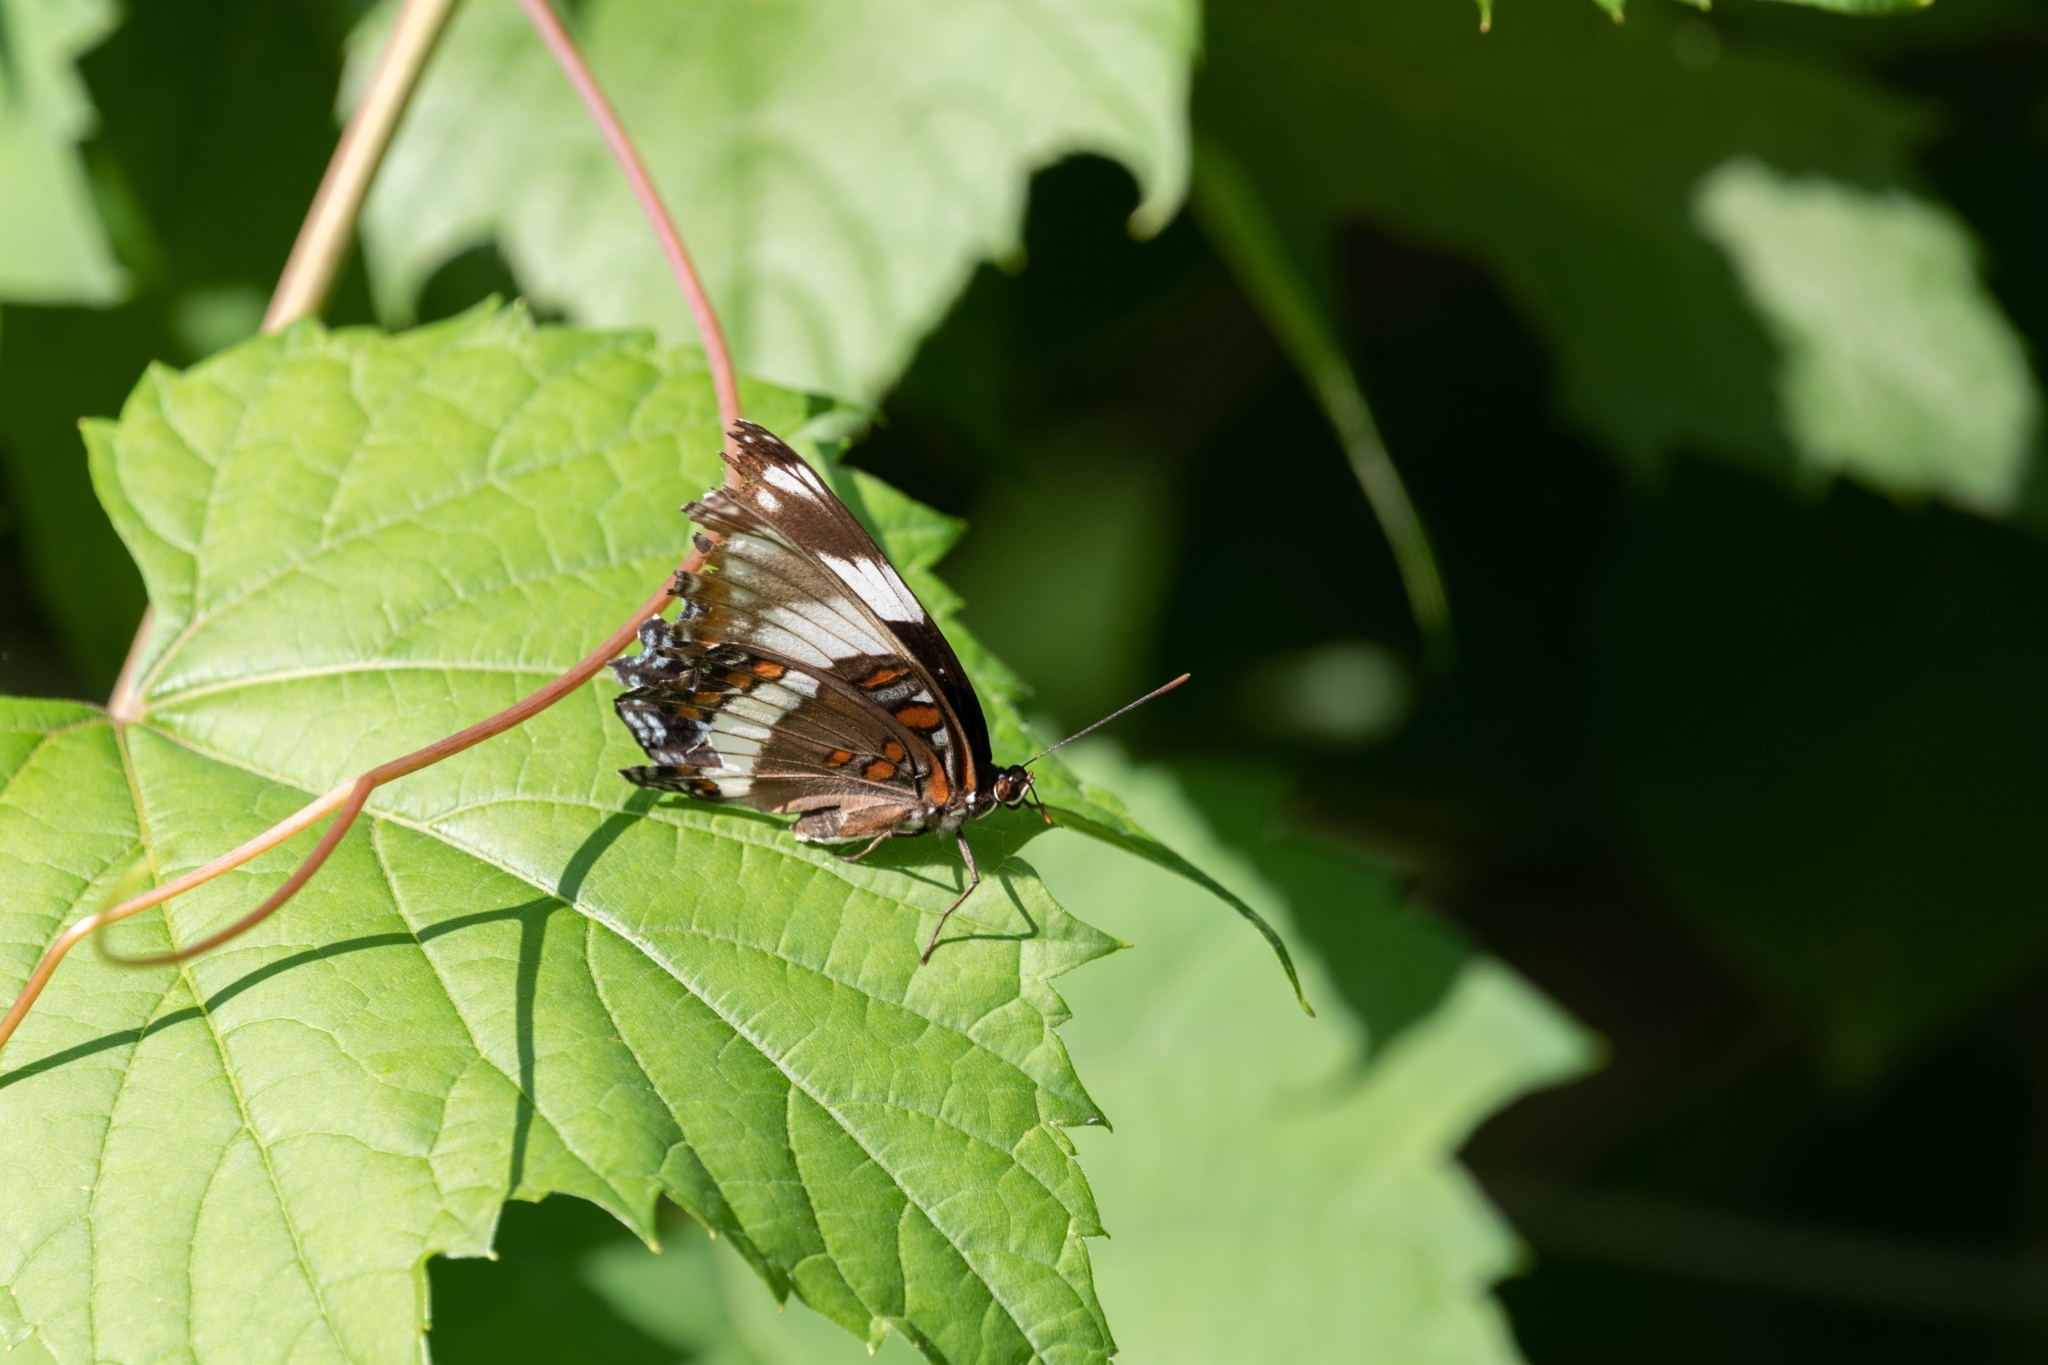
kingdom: Animalia
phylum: Arthropoda
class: Insecta
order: Lepidoptera
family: Nymphalidae
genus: Limenitis
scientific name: Limenitis arthemis
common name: Red-spotted admiral
